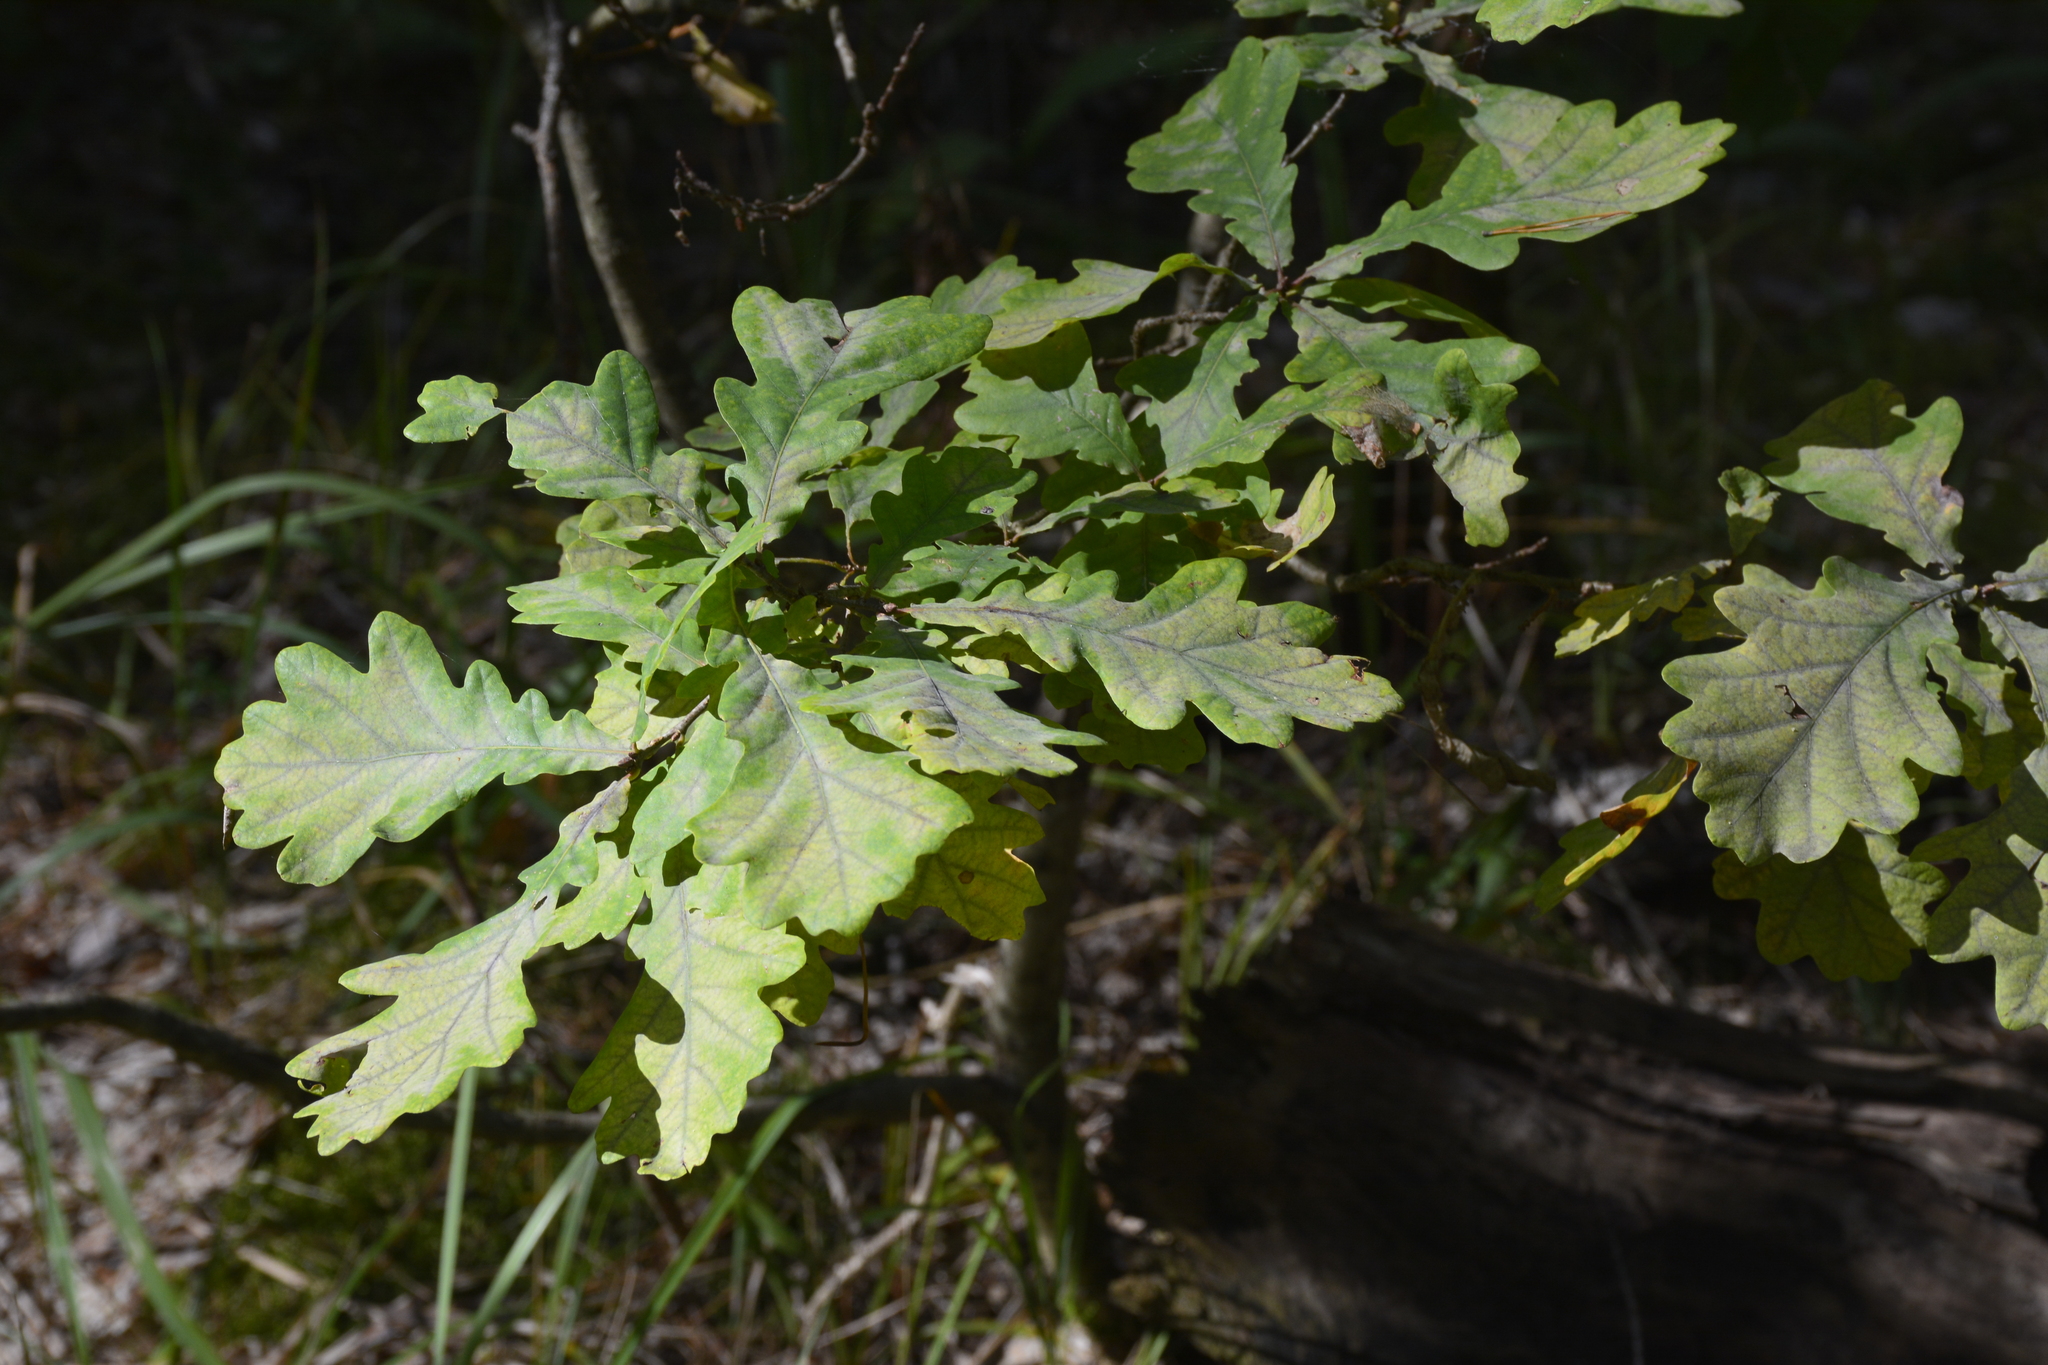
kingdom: Plantae
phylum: Tracheophyta
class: Magnoliopsida
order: Fagales
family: Fagaceae
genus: Quercus
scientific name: Quercus robur
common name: Pedunculate oak
